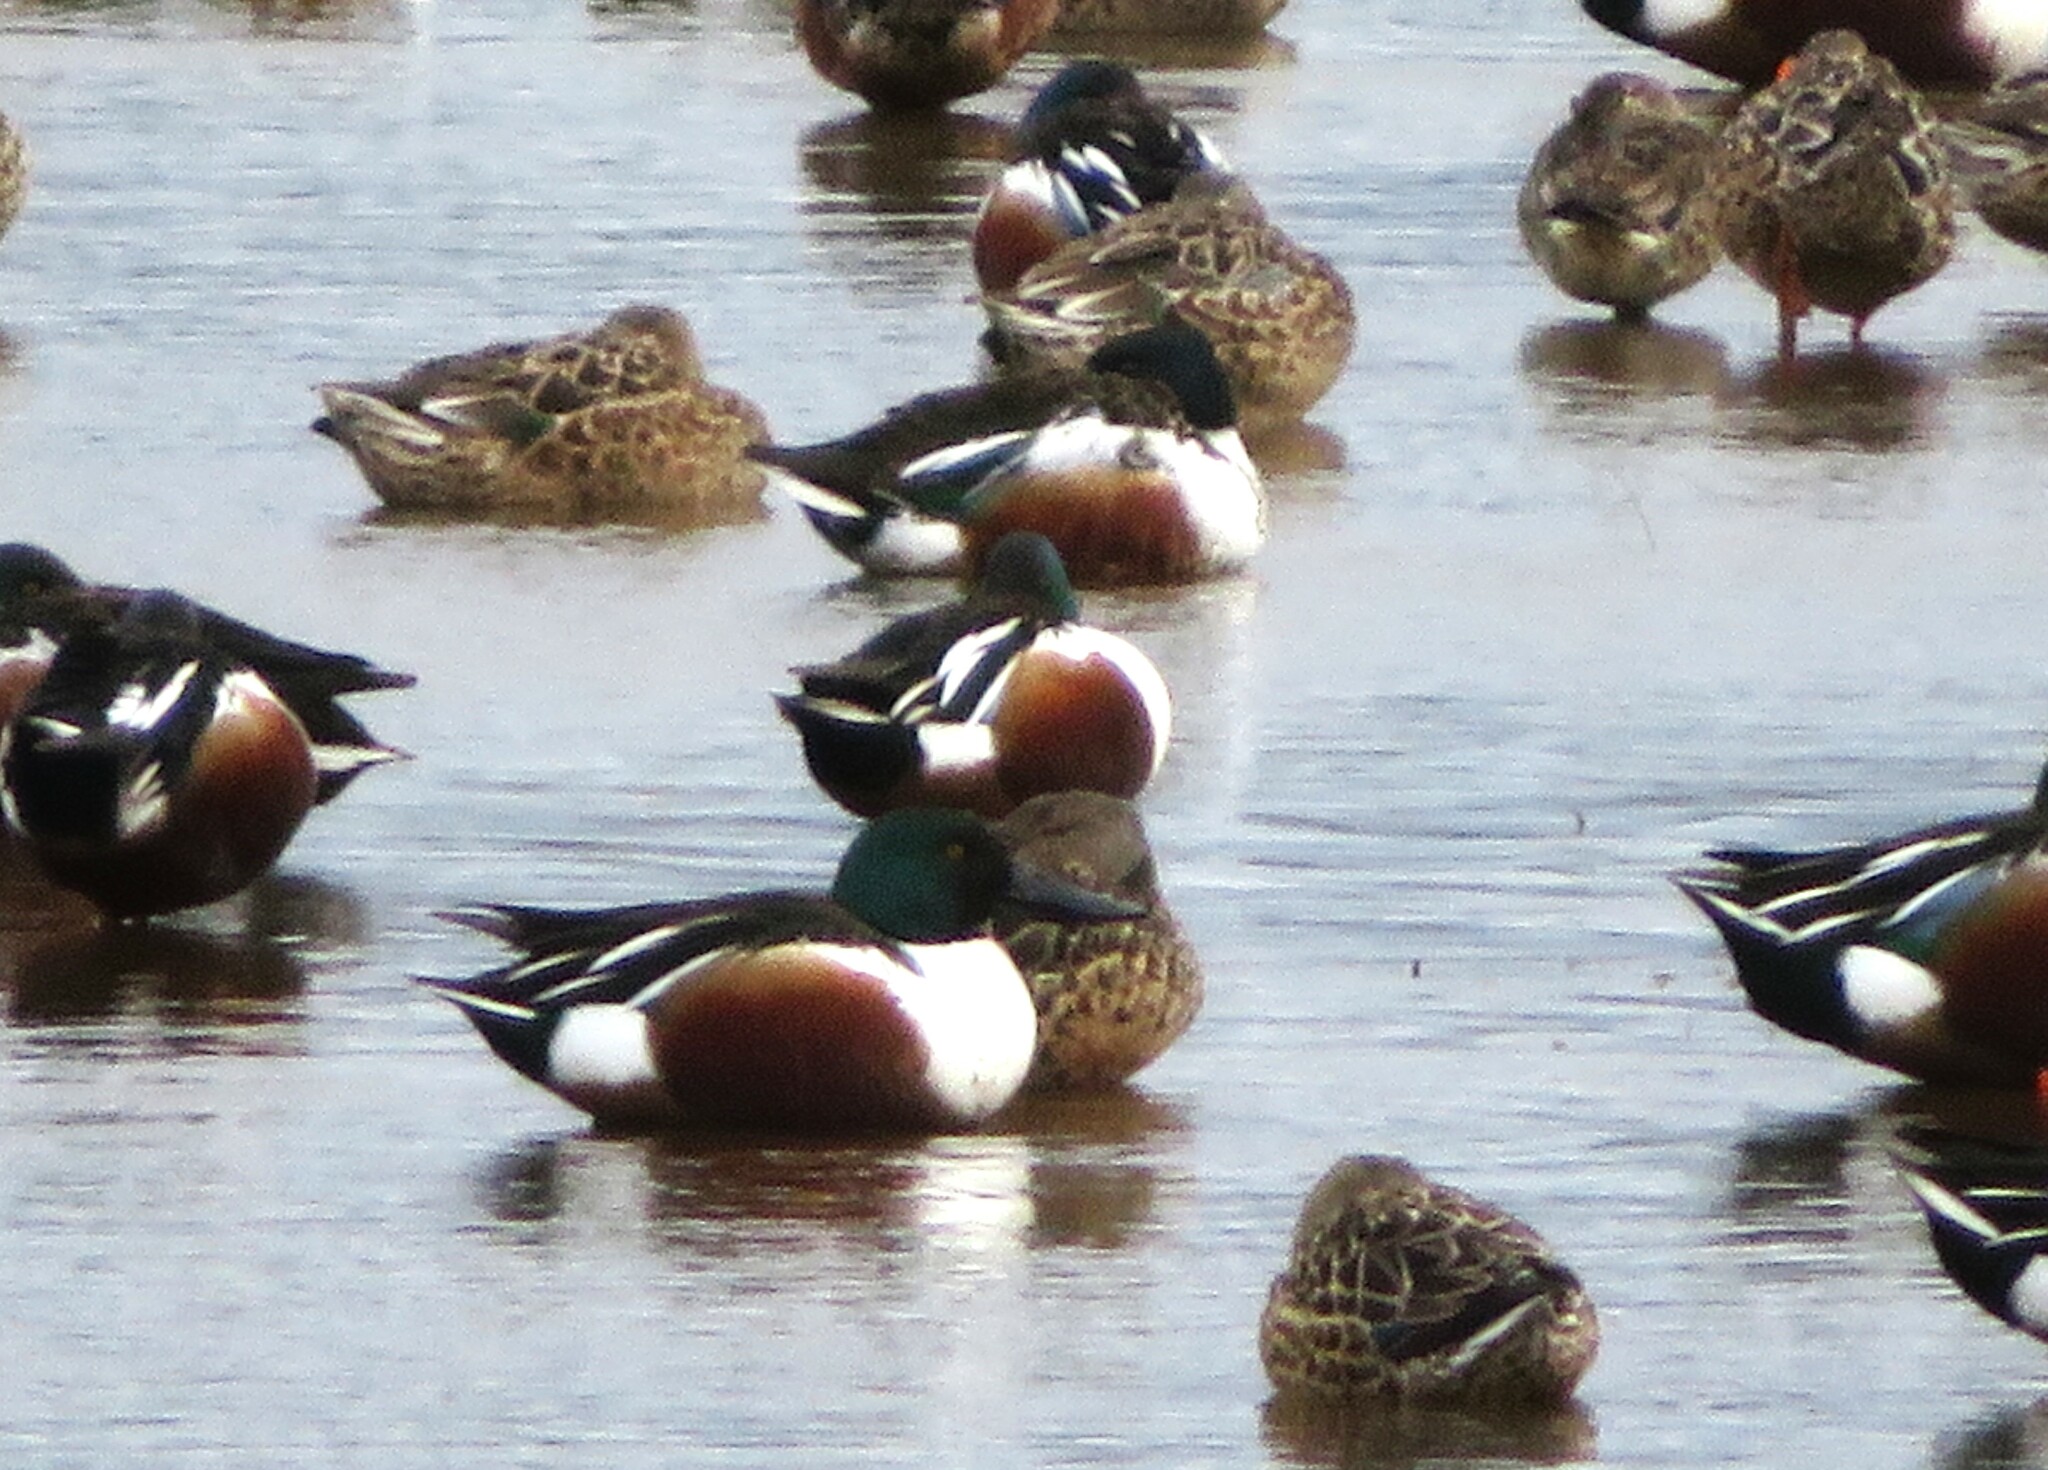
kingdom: Animalia
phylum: Chordata
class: Aves
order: Anseriformes
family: Anatidae
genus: Spatula
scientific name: Spatula clypeata
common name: Northern shoveler
